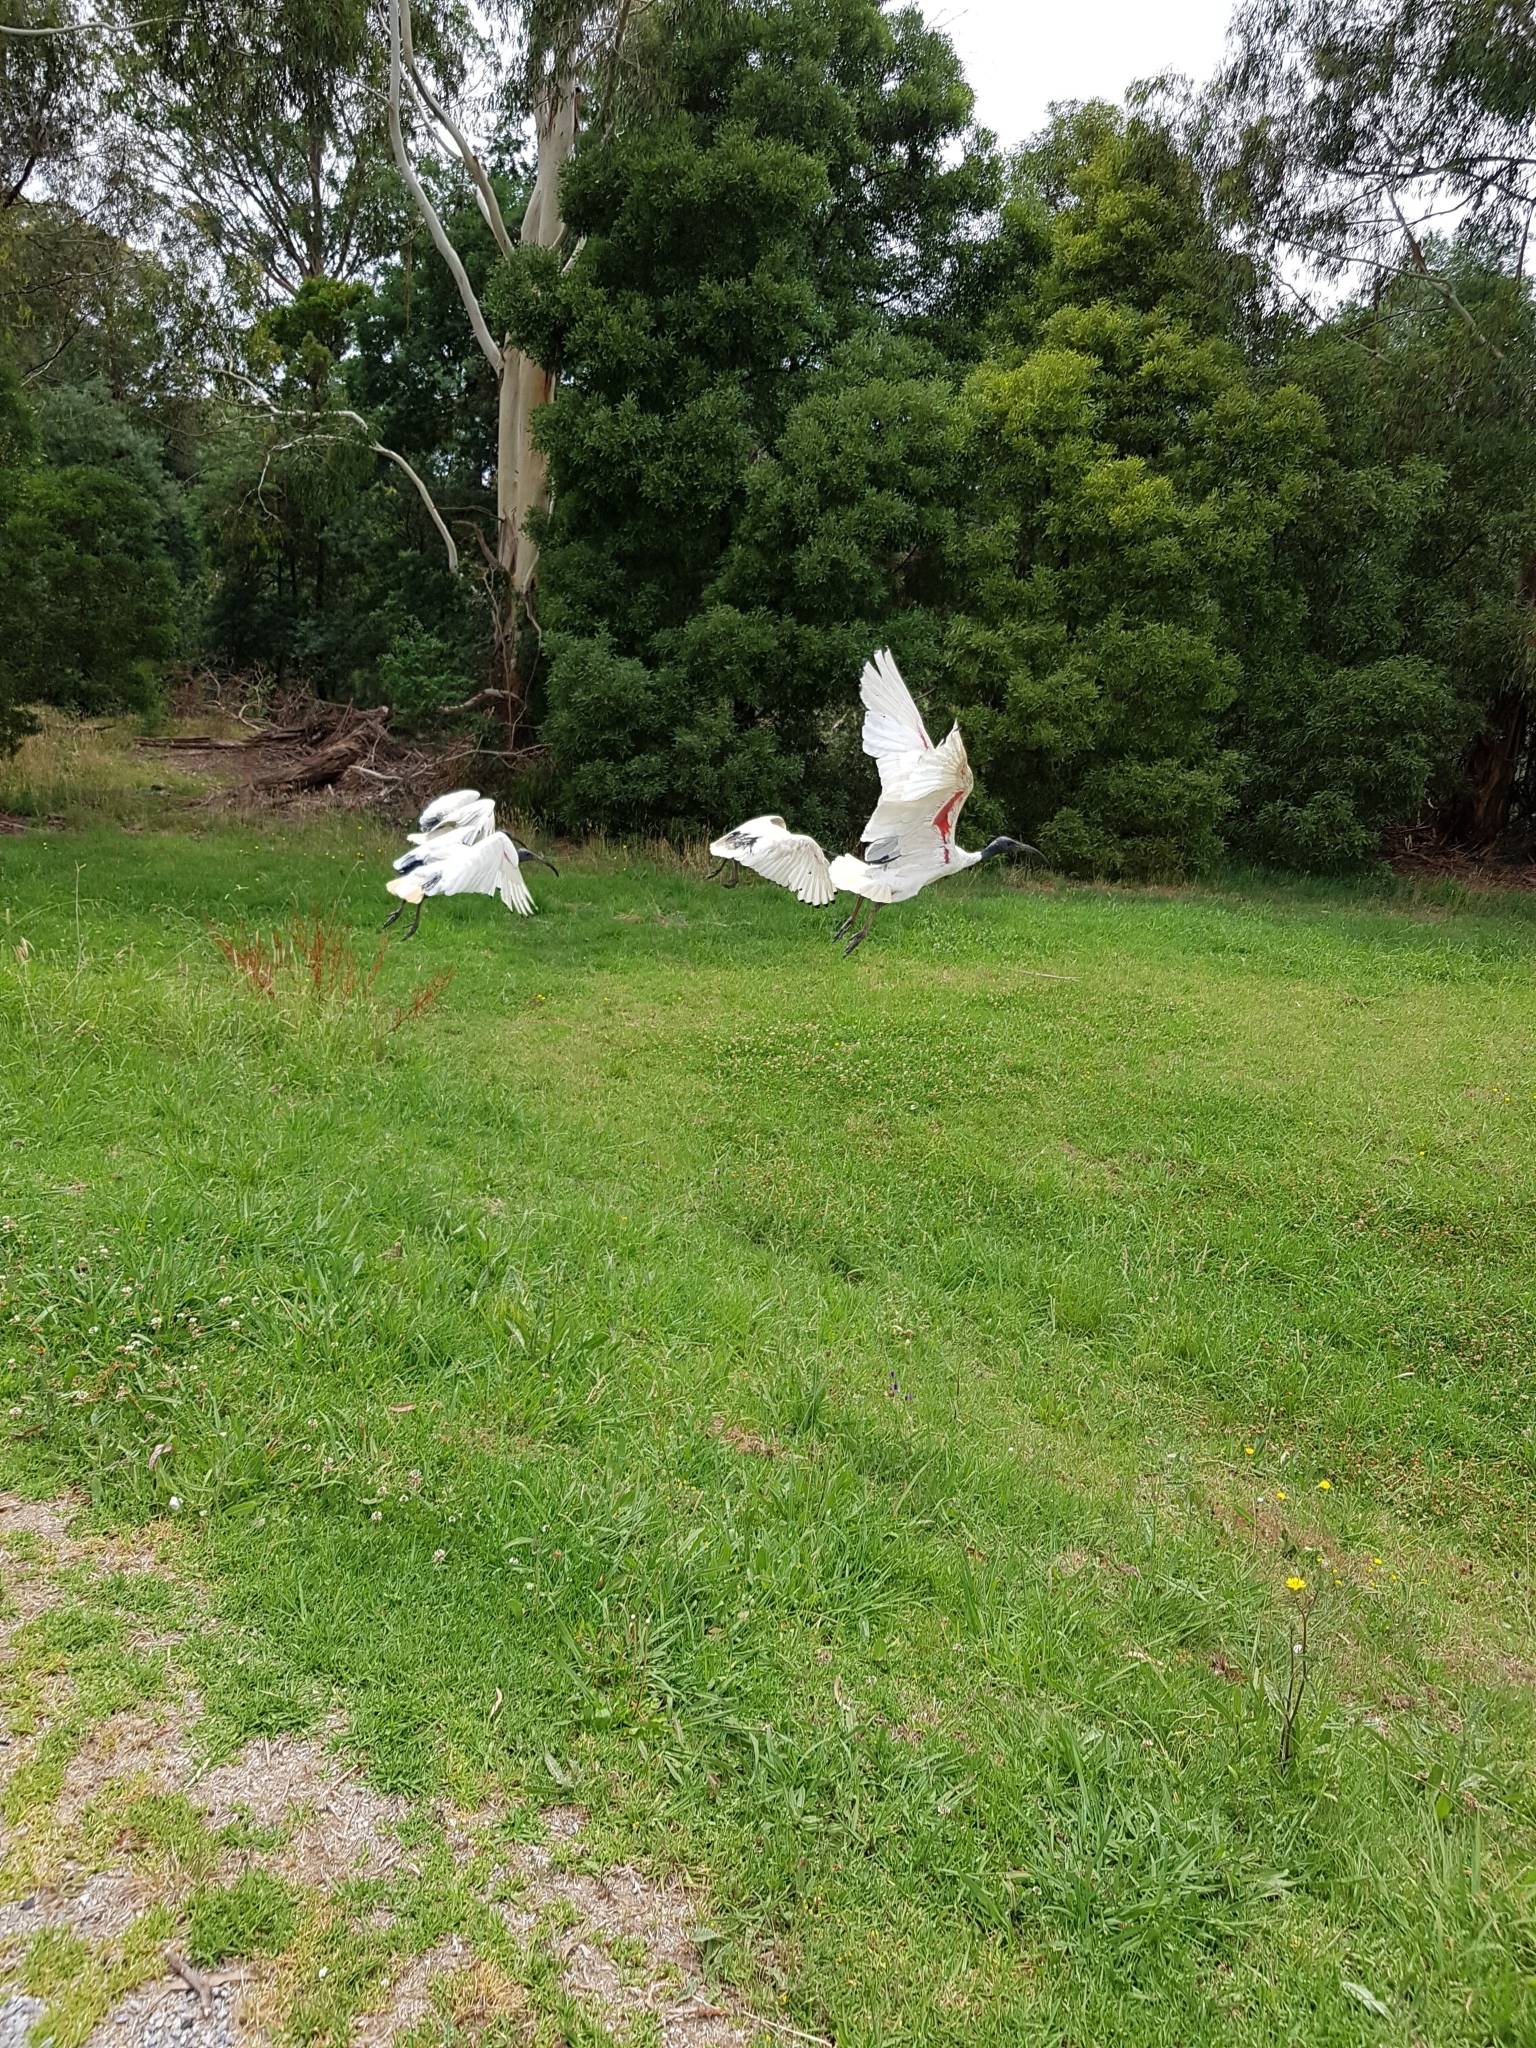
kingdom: Animalia
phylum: Chordata
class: Aves
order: Pelecaniformes
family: Threskiornithidae
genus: Threskiornis
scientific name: Threskiornis molucca
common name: Australian white ibis
